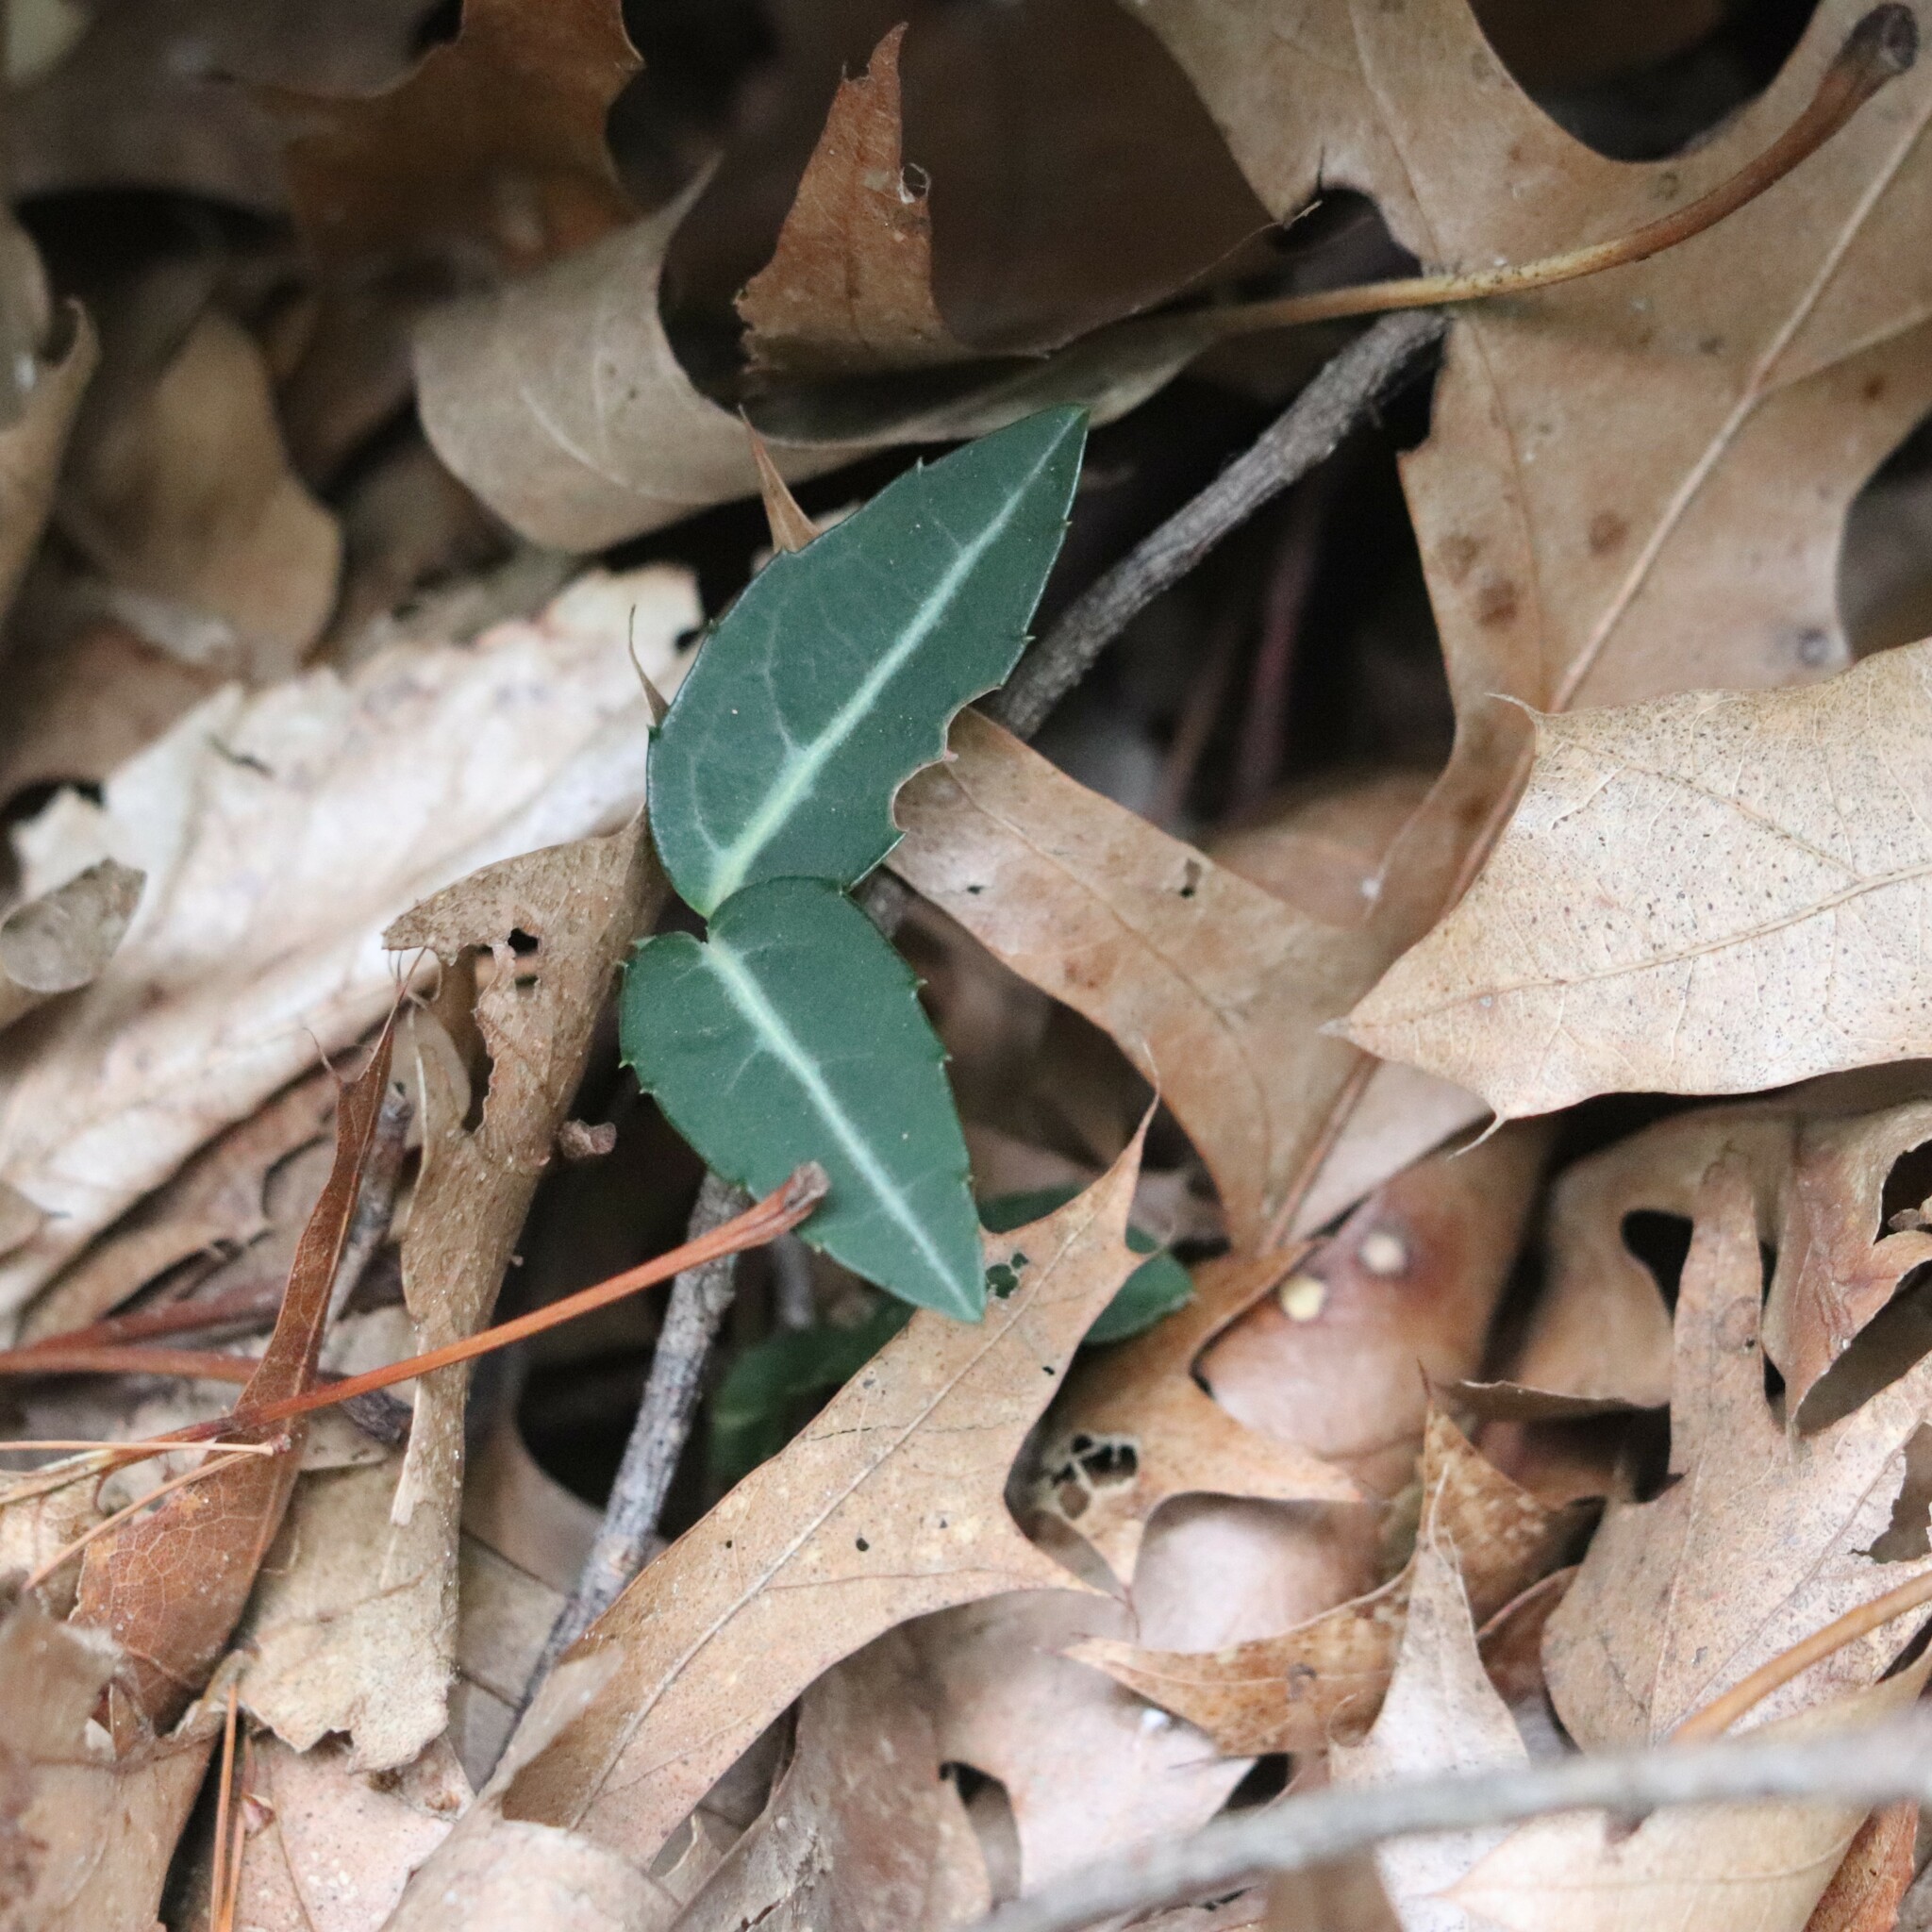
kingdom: Plantae
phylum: Tracheophyta
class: Magnoliopsida
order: Ericales
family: Ericaceae
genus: Chimaphila
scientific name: Chimaphila maculata
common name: Spotted pipsissewa
